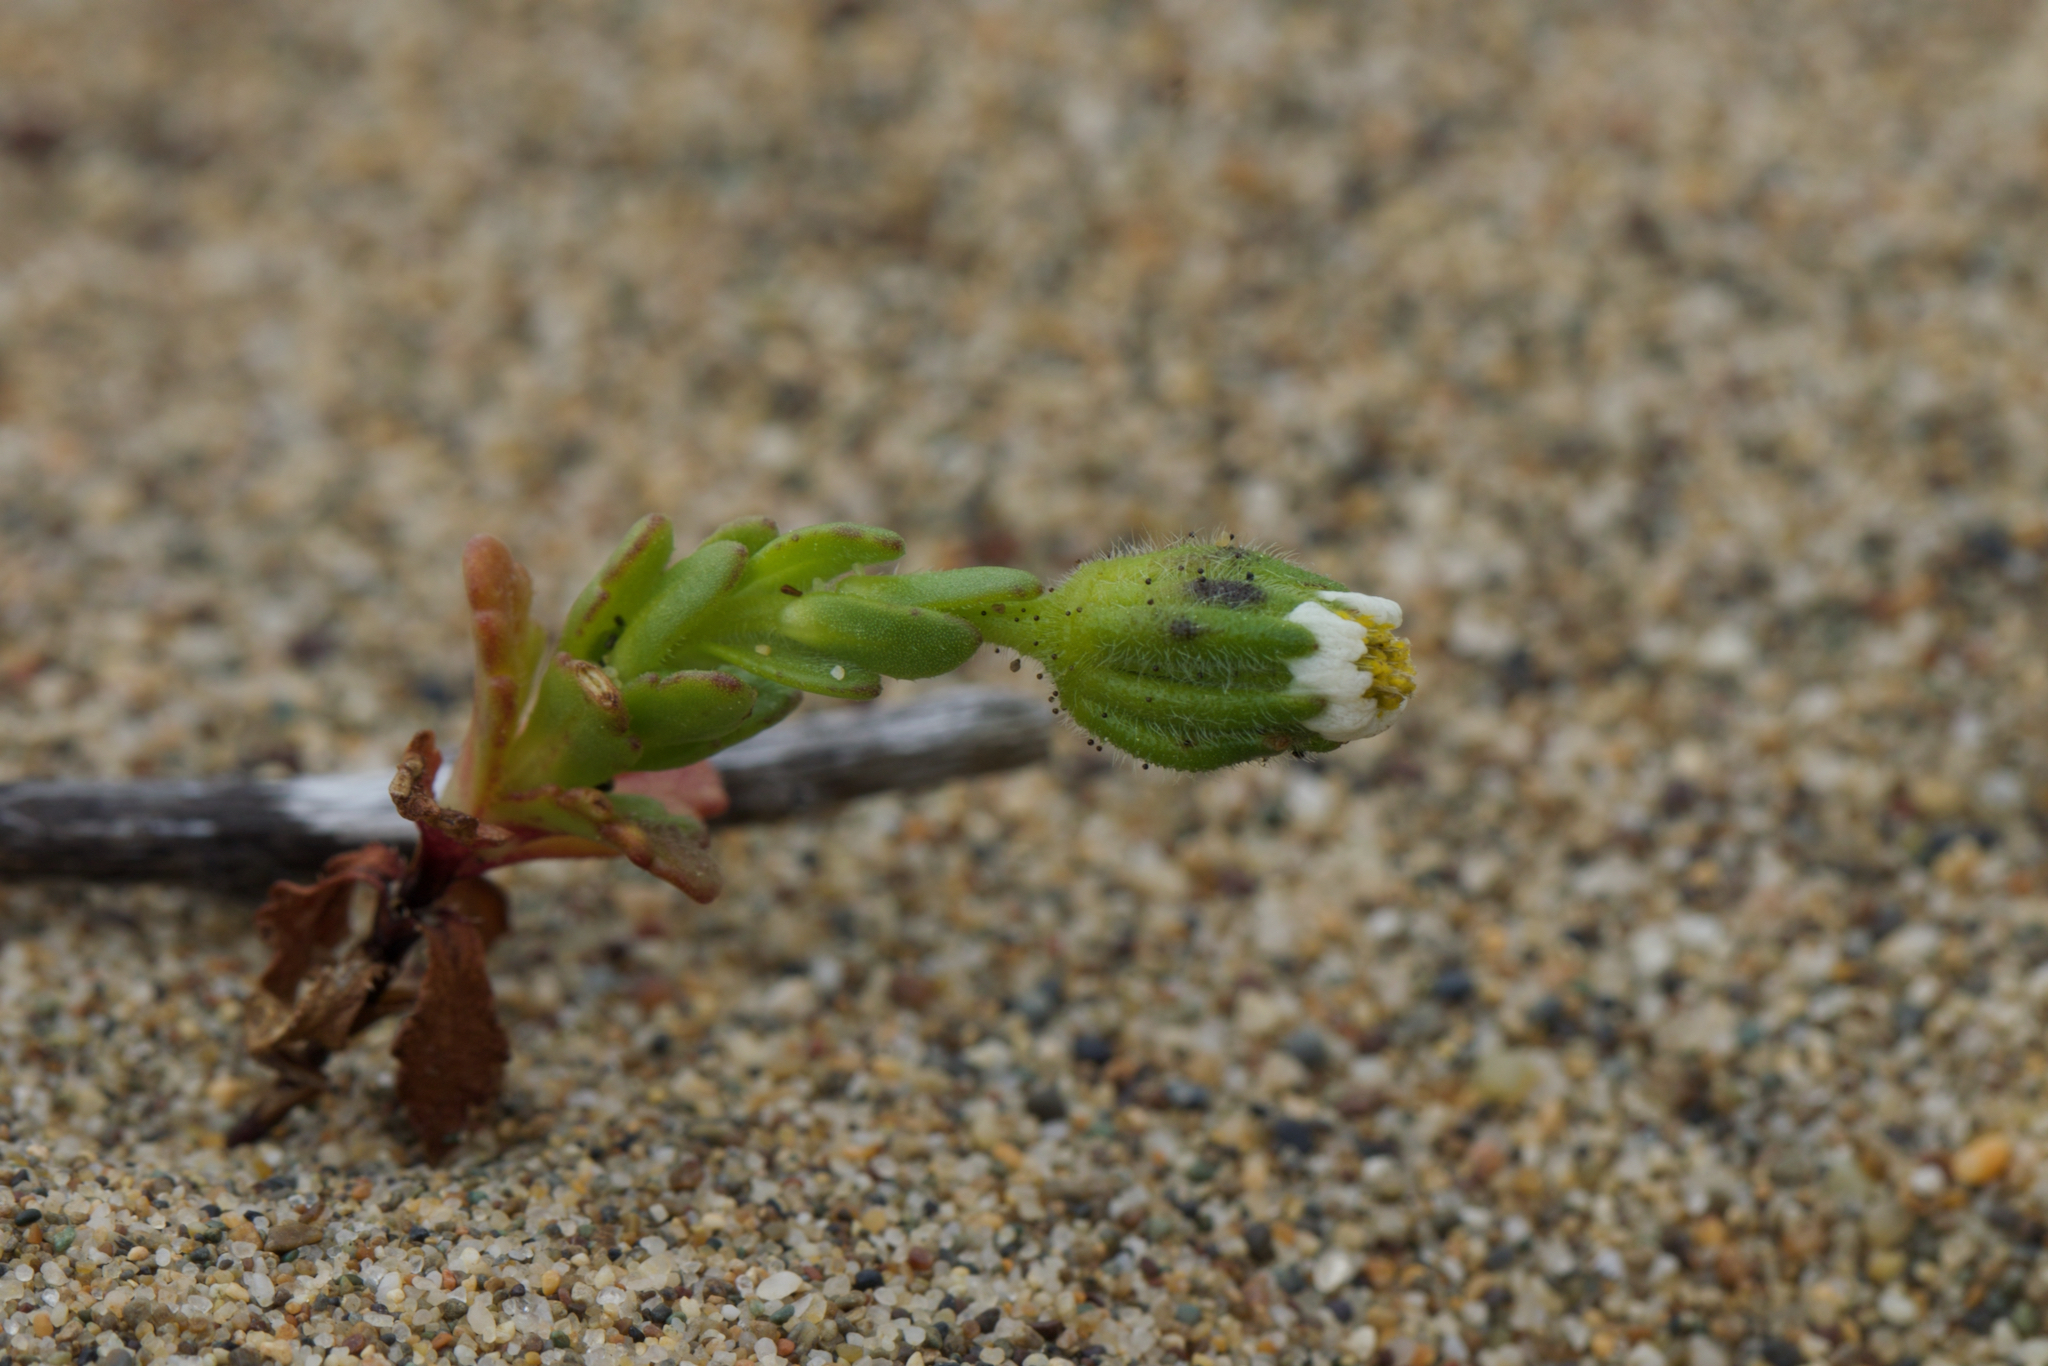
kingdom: Plantae
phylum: Tracheophyta
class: Magnoliopsida
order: Asterales
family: Asteraceae
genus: Layia
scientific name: Layia carnosa
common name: Beach layia
